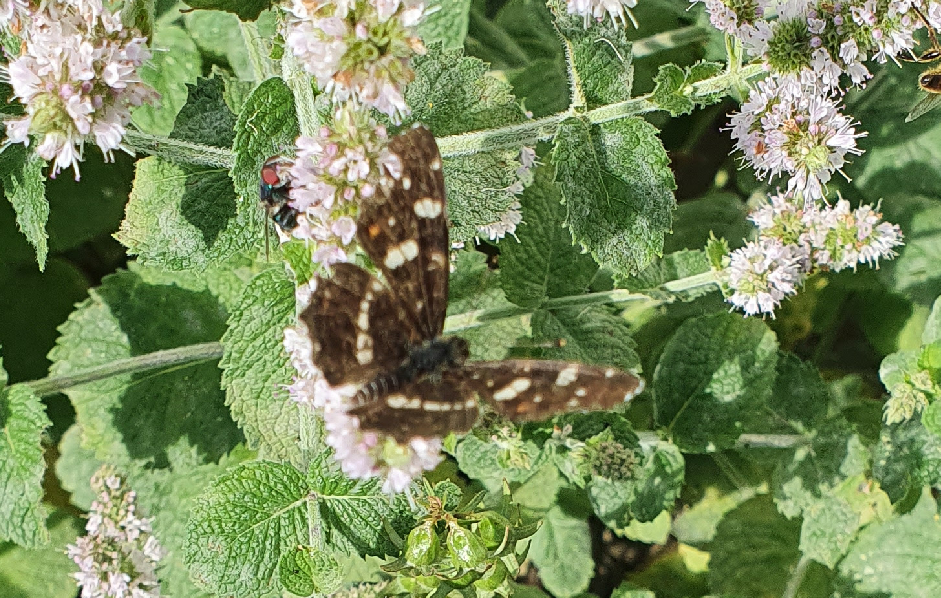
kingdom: Animalia
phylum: Arthropoda
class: Insecta
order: Lepidoptera
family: Nymphalidae
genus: Araschnia
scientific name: Araschnia levana
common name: Map butterfly
